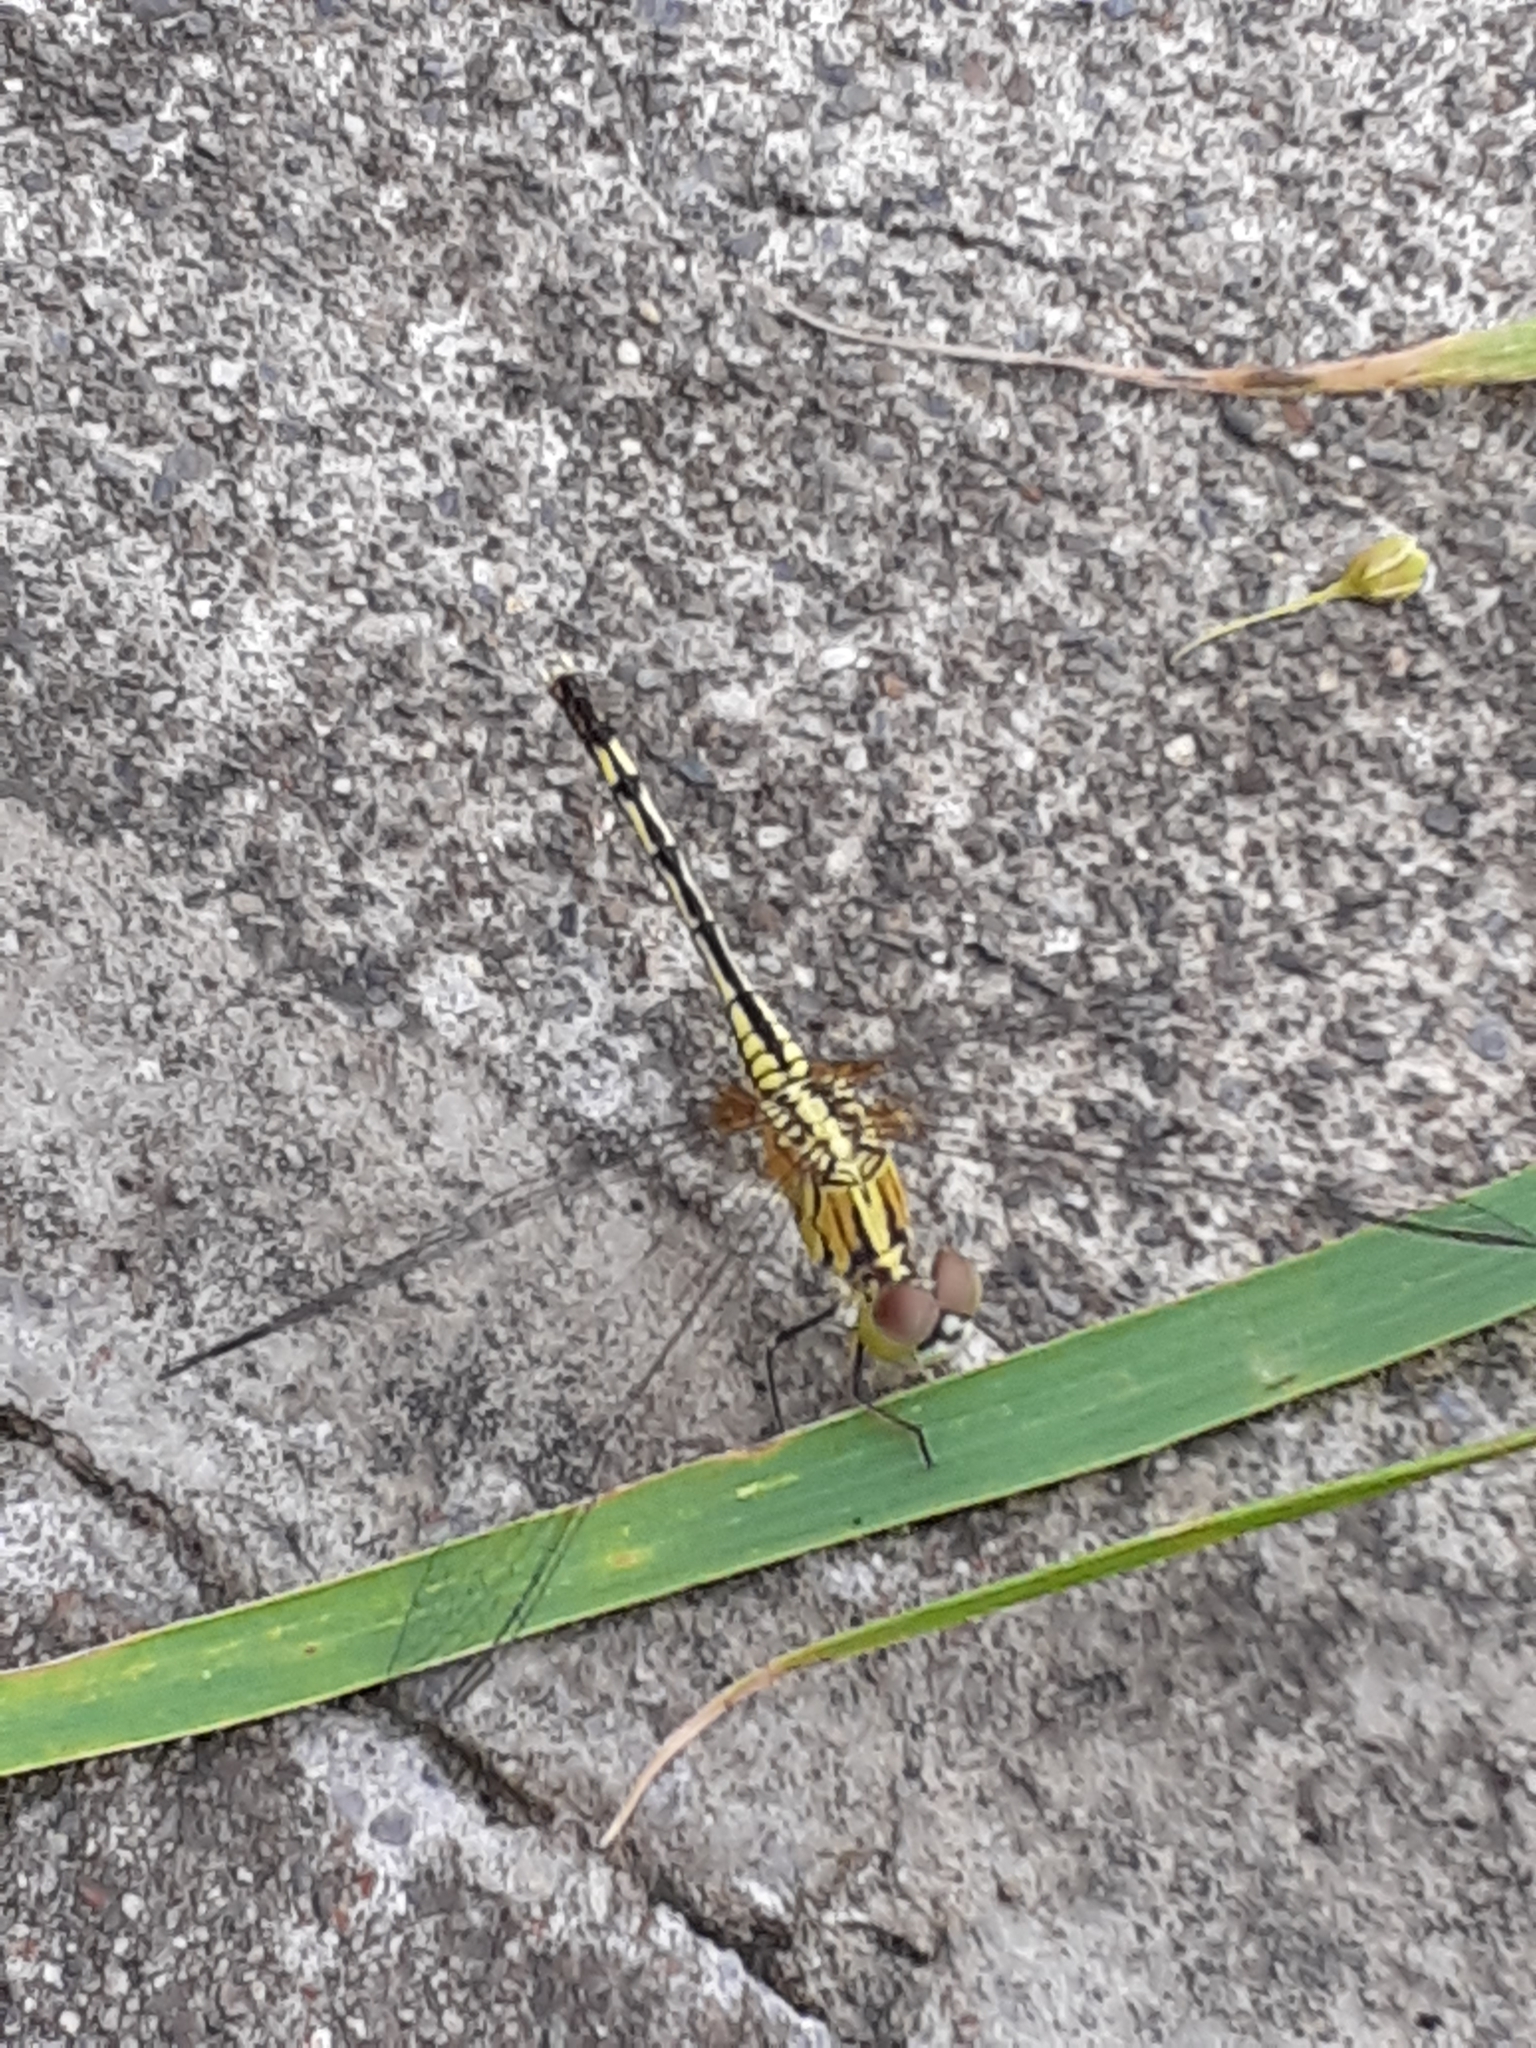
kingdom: Animalia
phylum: Arthropoda
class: Insecta
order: Odonata
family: Libellulidae
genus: Diplacodes
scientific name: Diplacodes trivialis
